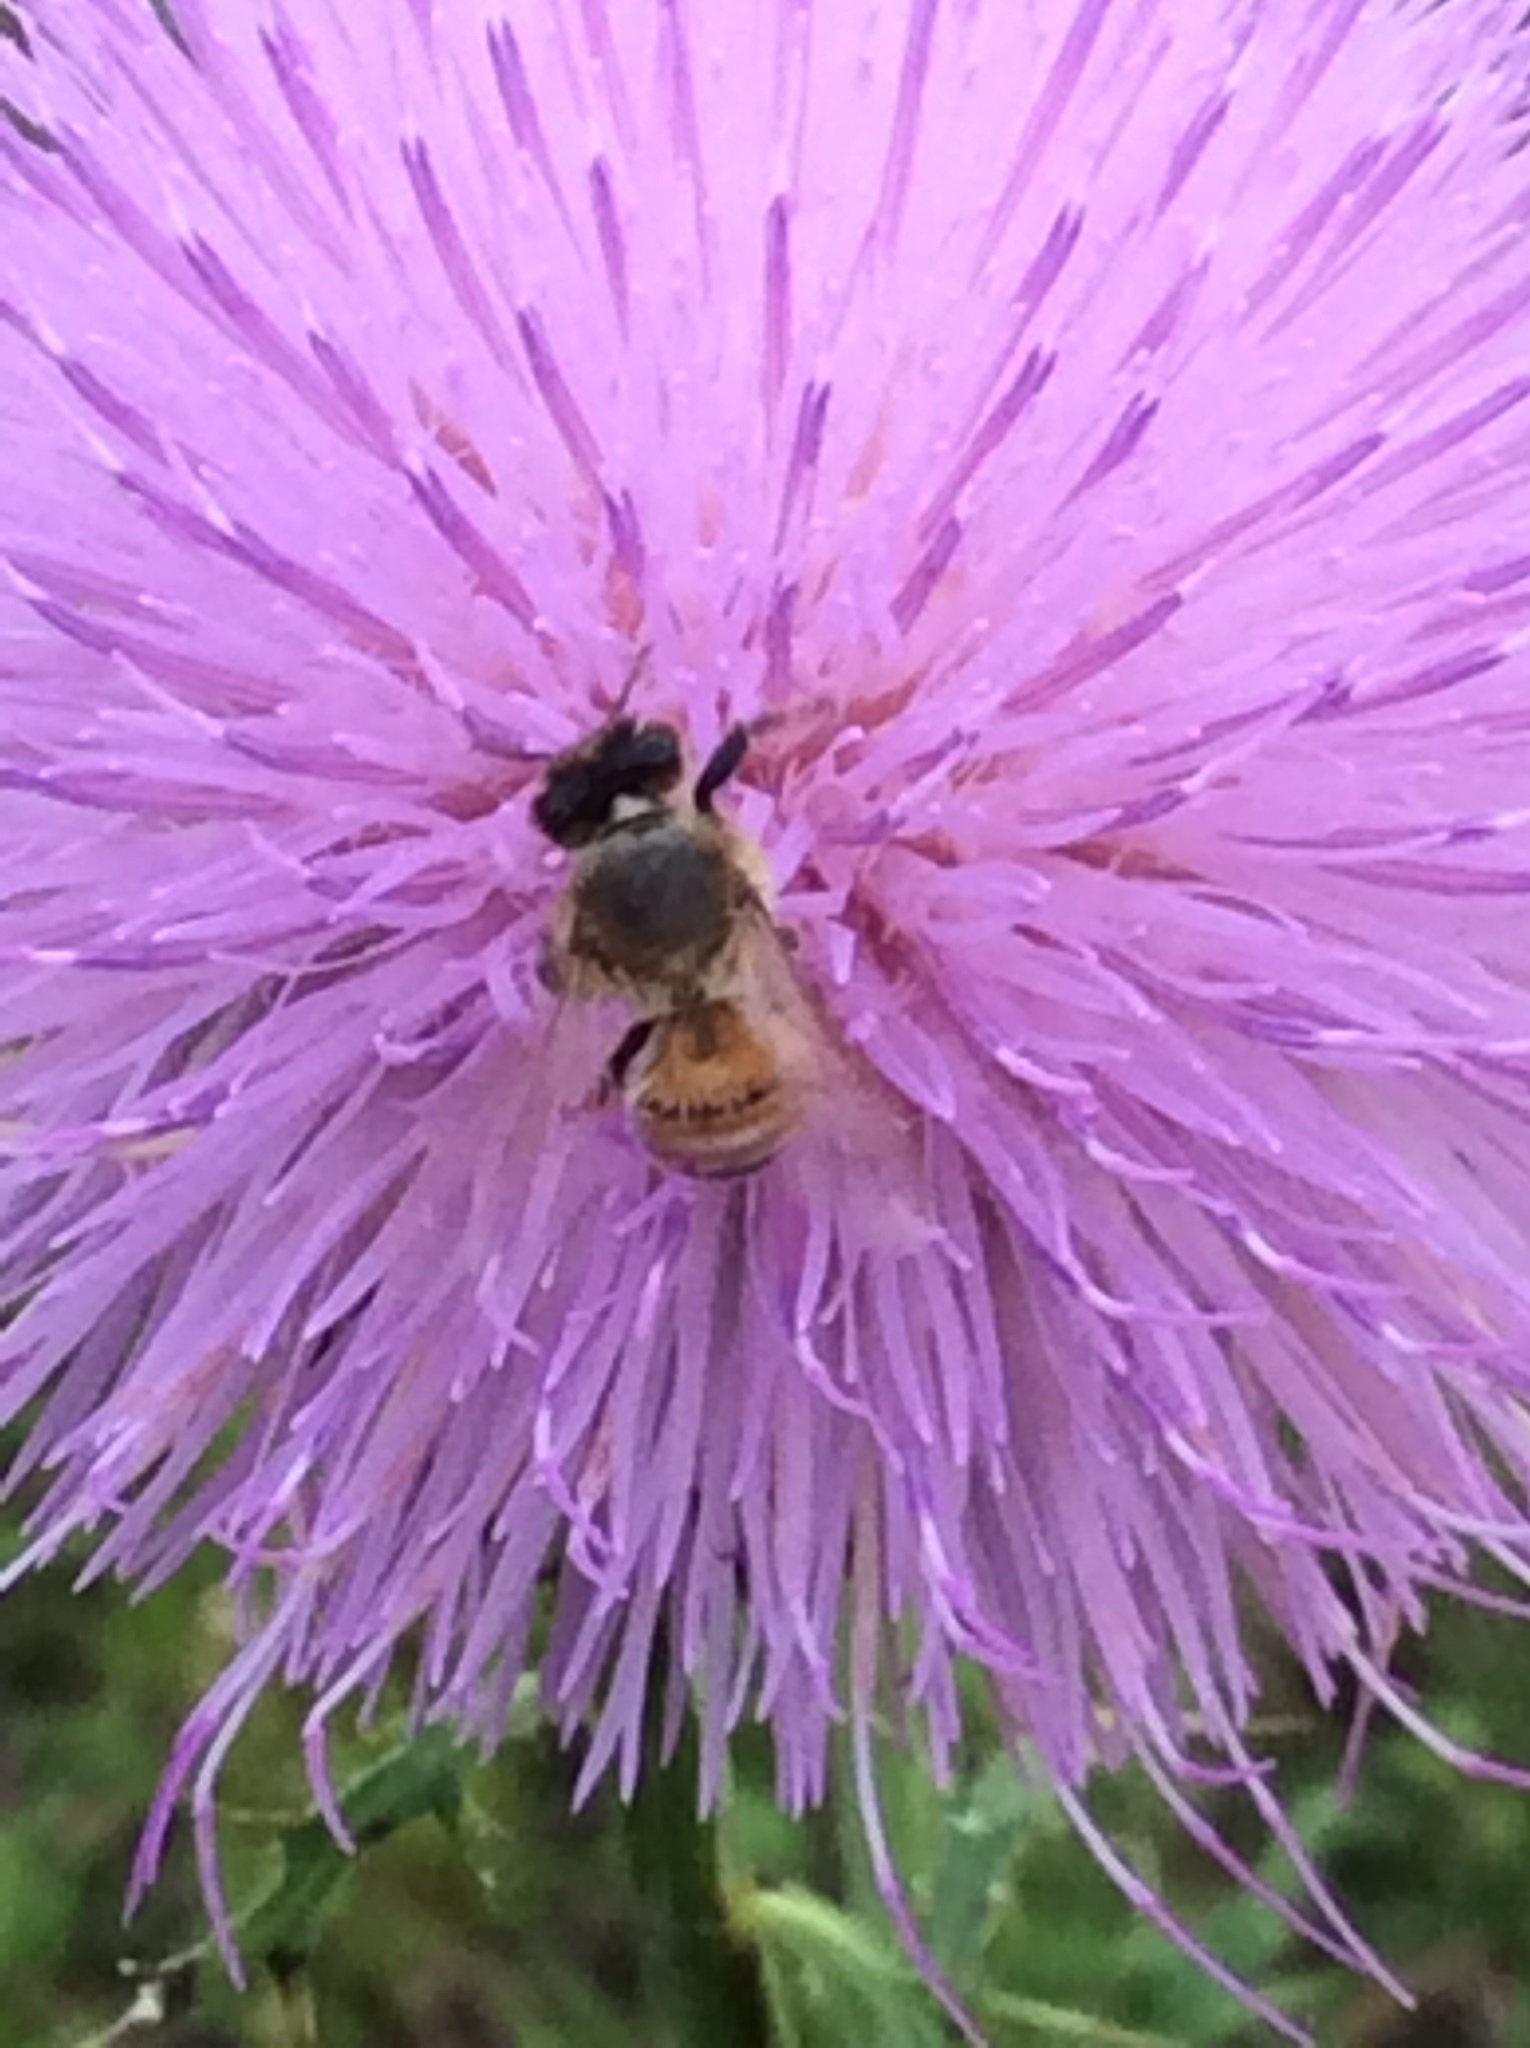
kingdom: Animalia
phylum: Arthropoda
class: Insecta
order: Hymenoptera
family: Apidae
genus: Apis
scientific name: Apis mellifera
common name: Honey bee
